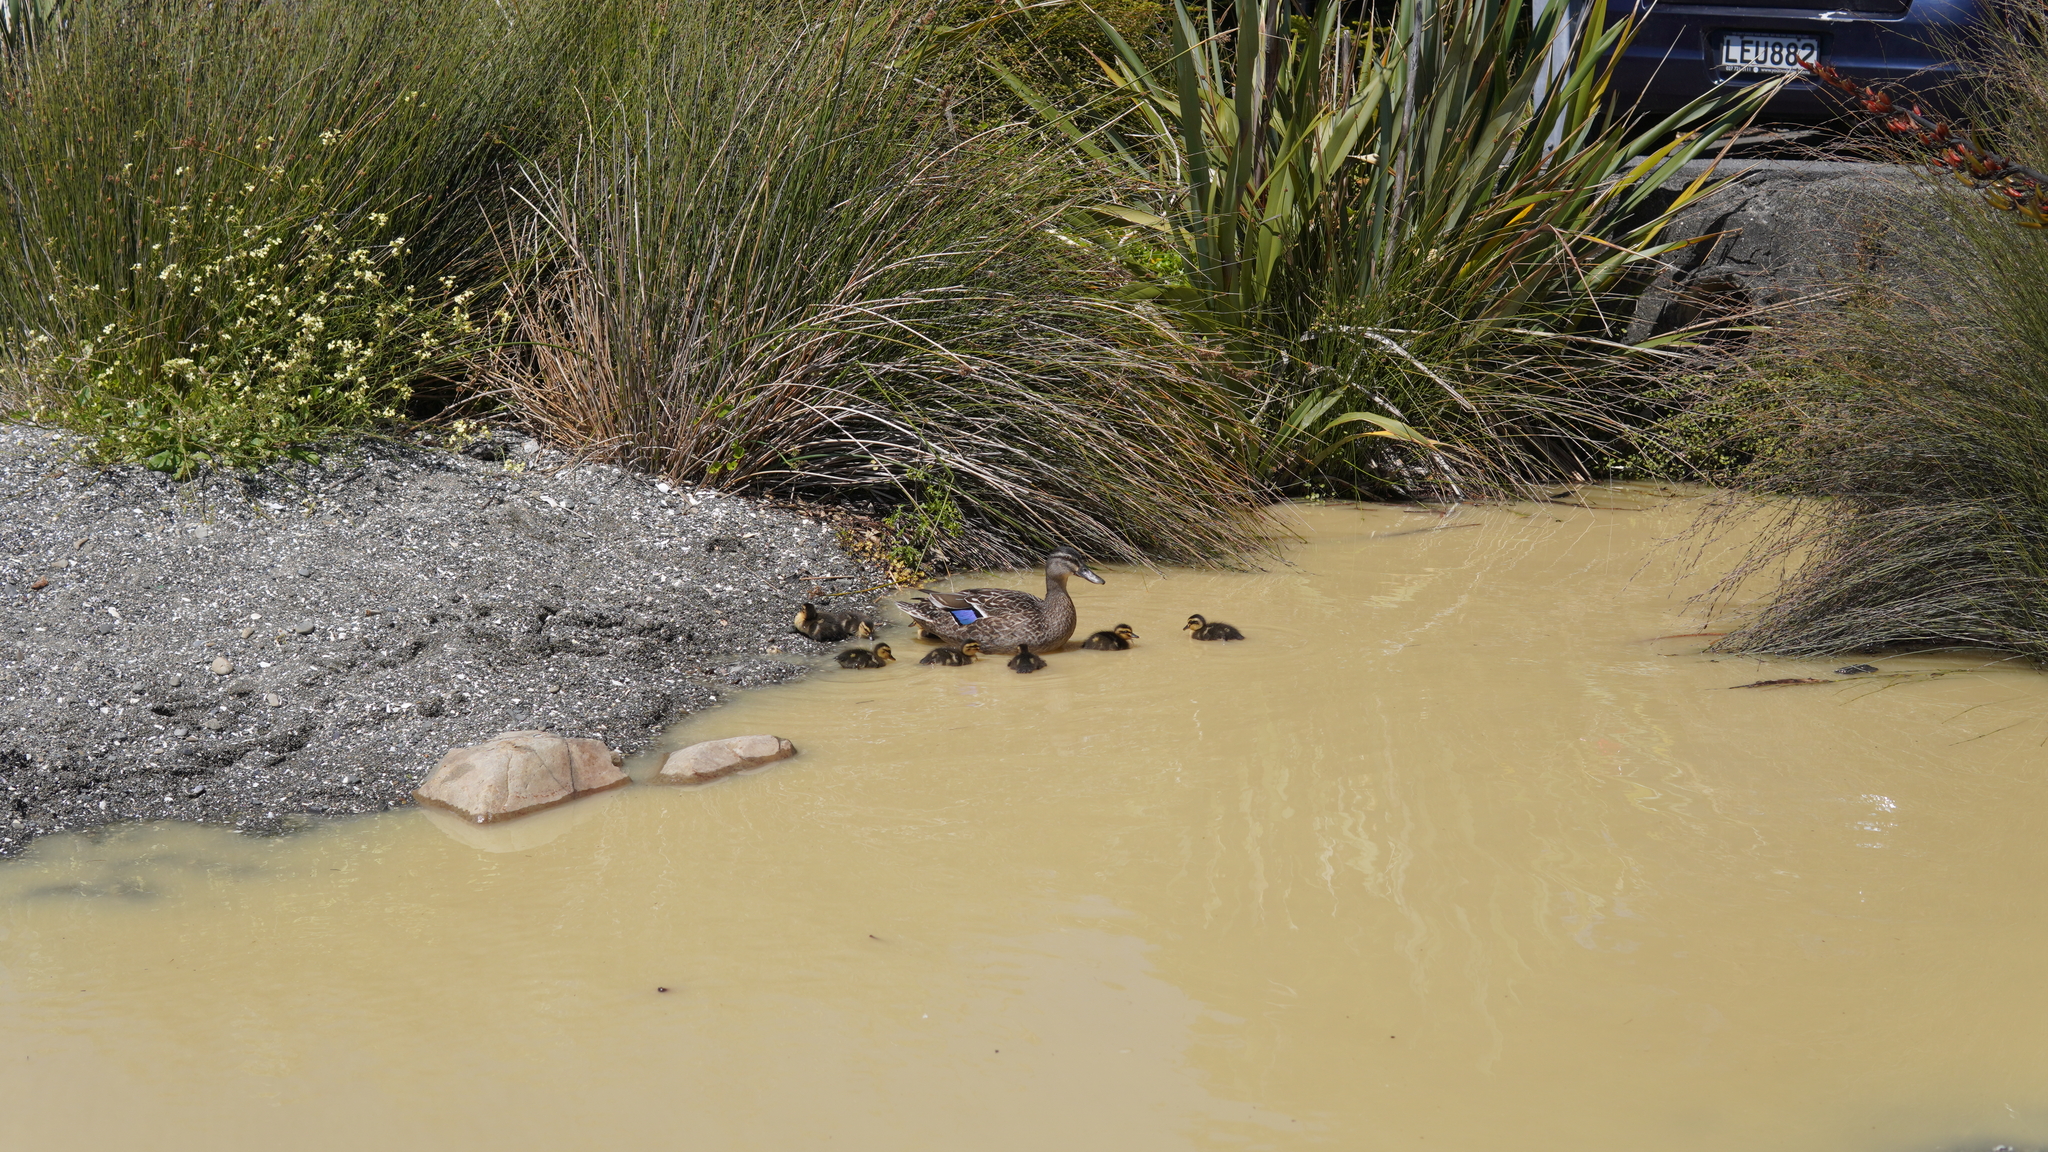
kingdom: Animalia
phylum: Chordata
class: Aves
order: Anseriformes
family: Anatidae
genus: Anas
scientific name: Anas
